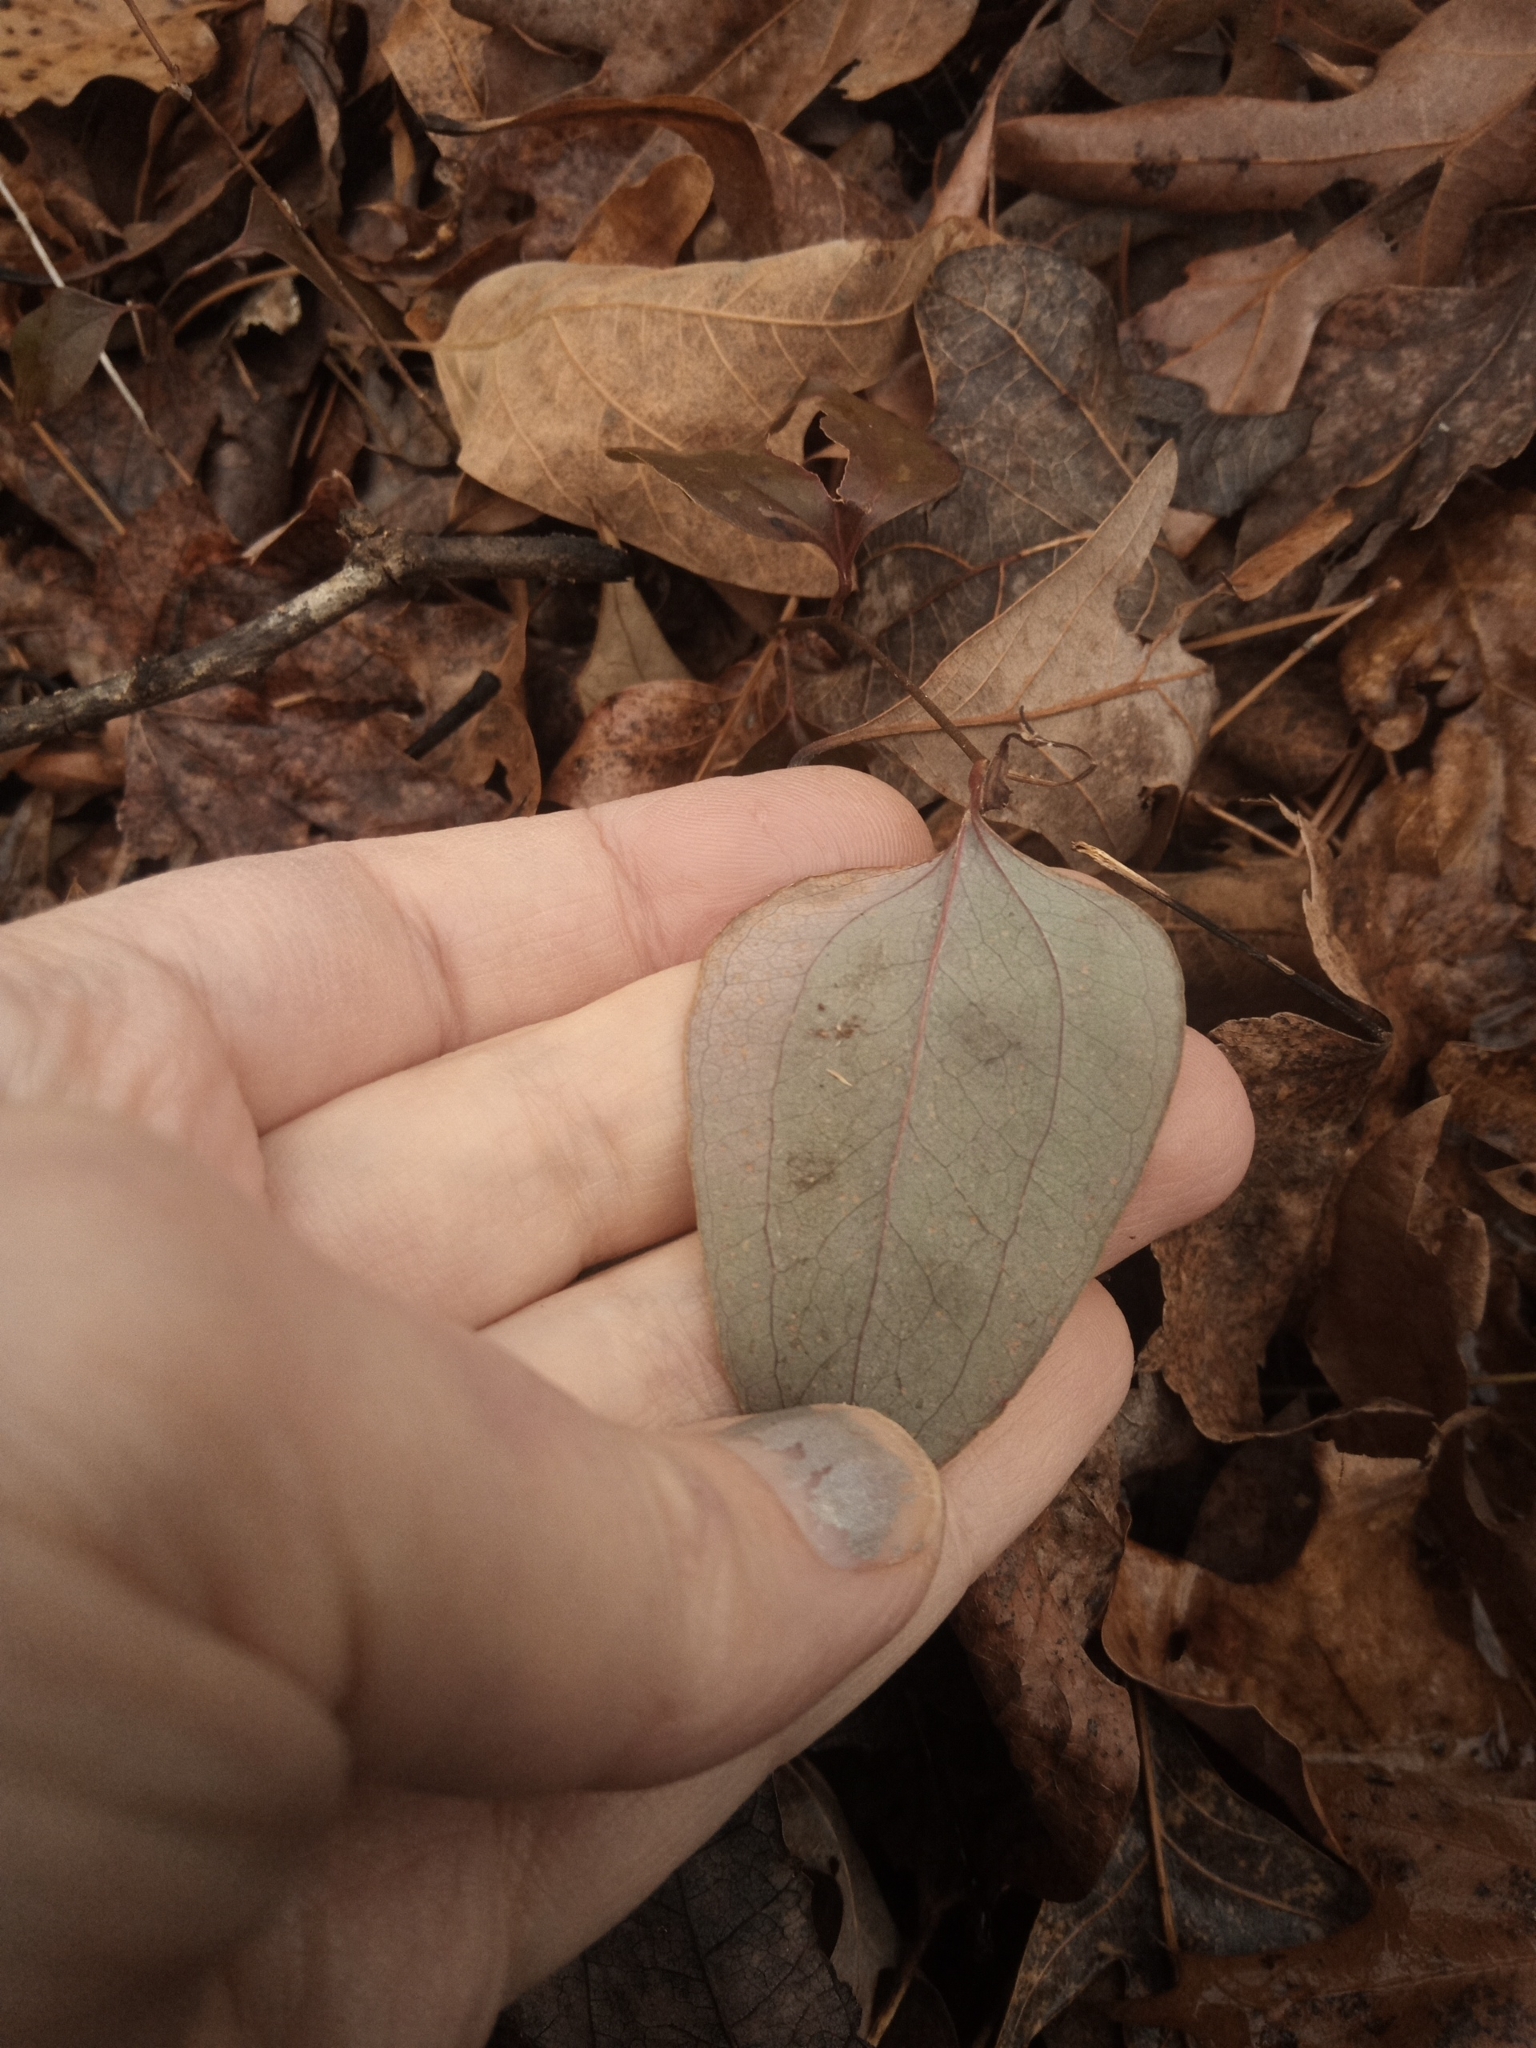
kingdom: Plantae
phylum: Tracheophyta
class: Liliopsida
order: Liliales
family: Smilacaceae
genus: Smilax
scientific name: Smilax glauca
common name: Cat greenbrier
